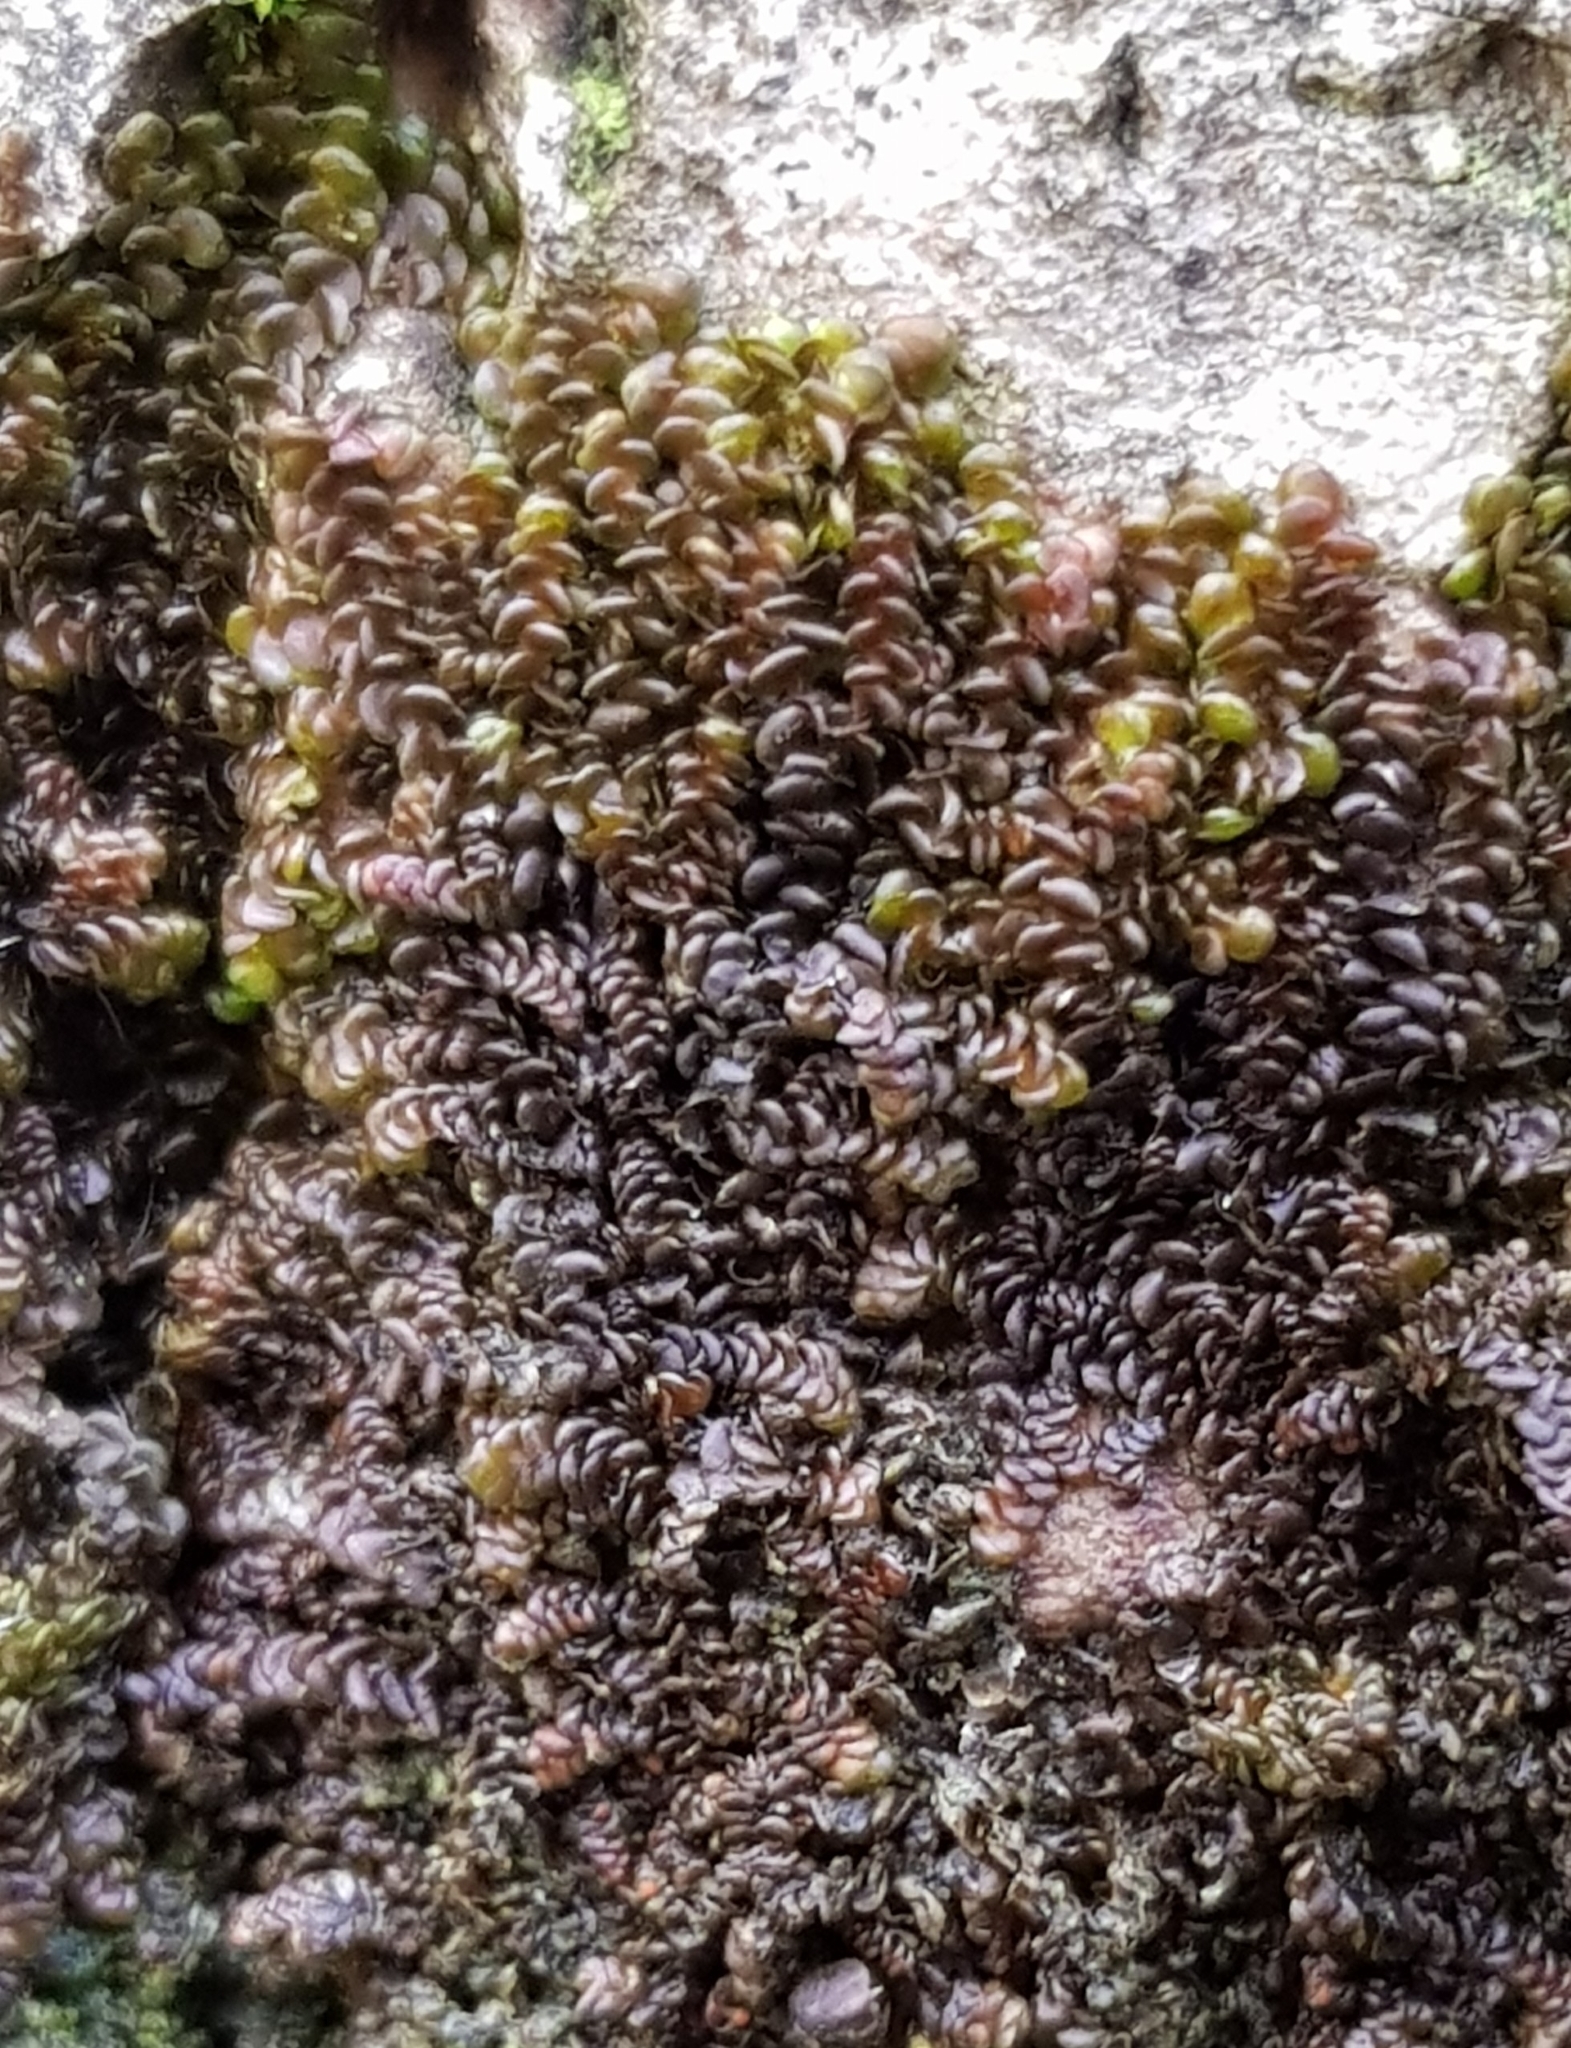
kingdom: Plantae
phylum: Marchantiophyta
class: Jungermanniopsida
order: Porellales
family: Frullaniaceae
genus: Frullania
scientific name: Frullania dilatata
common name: Dilated scalewort
